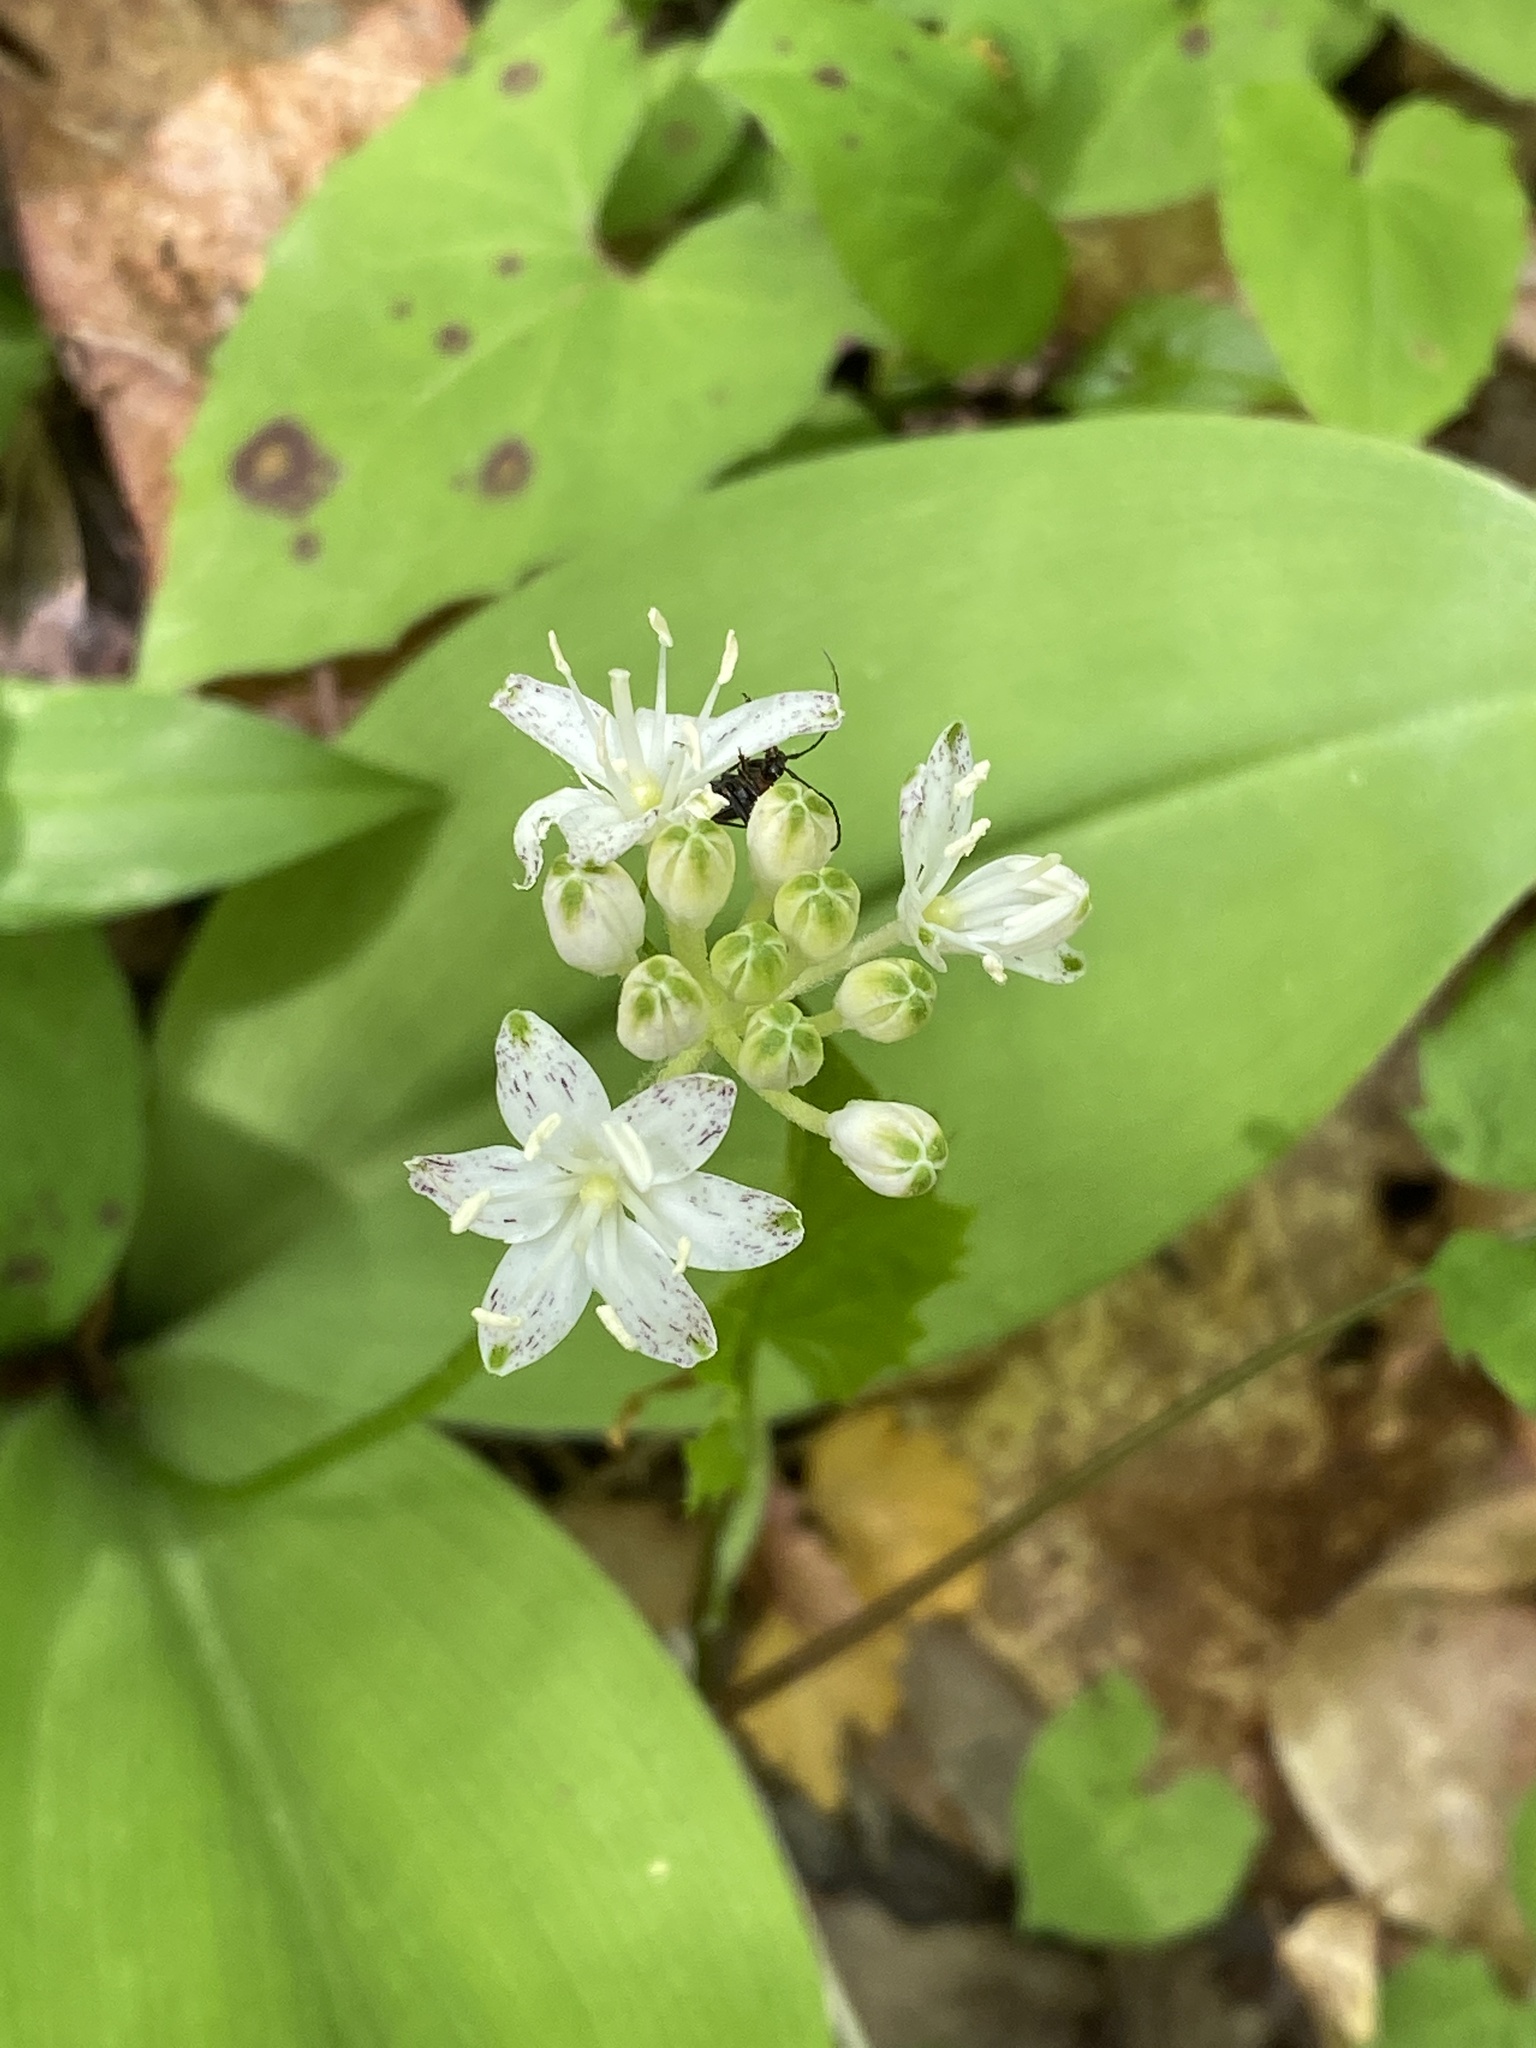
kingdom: Plantae
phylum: Tracheophyta
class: Liliopsida
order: Liliales
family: Liliaceae
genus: Clintonia
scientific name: Clintonia umbellulata
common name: Speckle wood-lily
